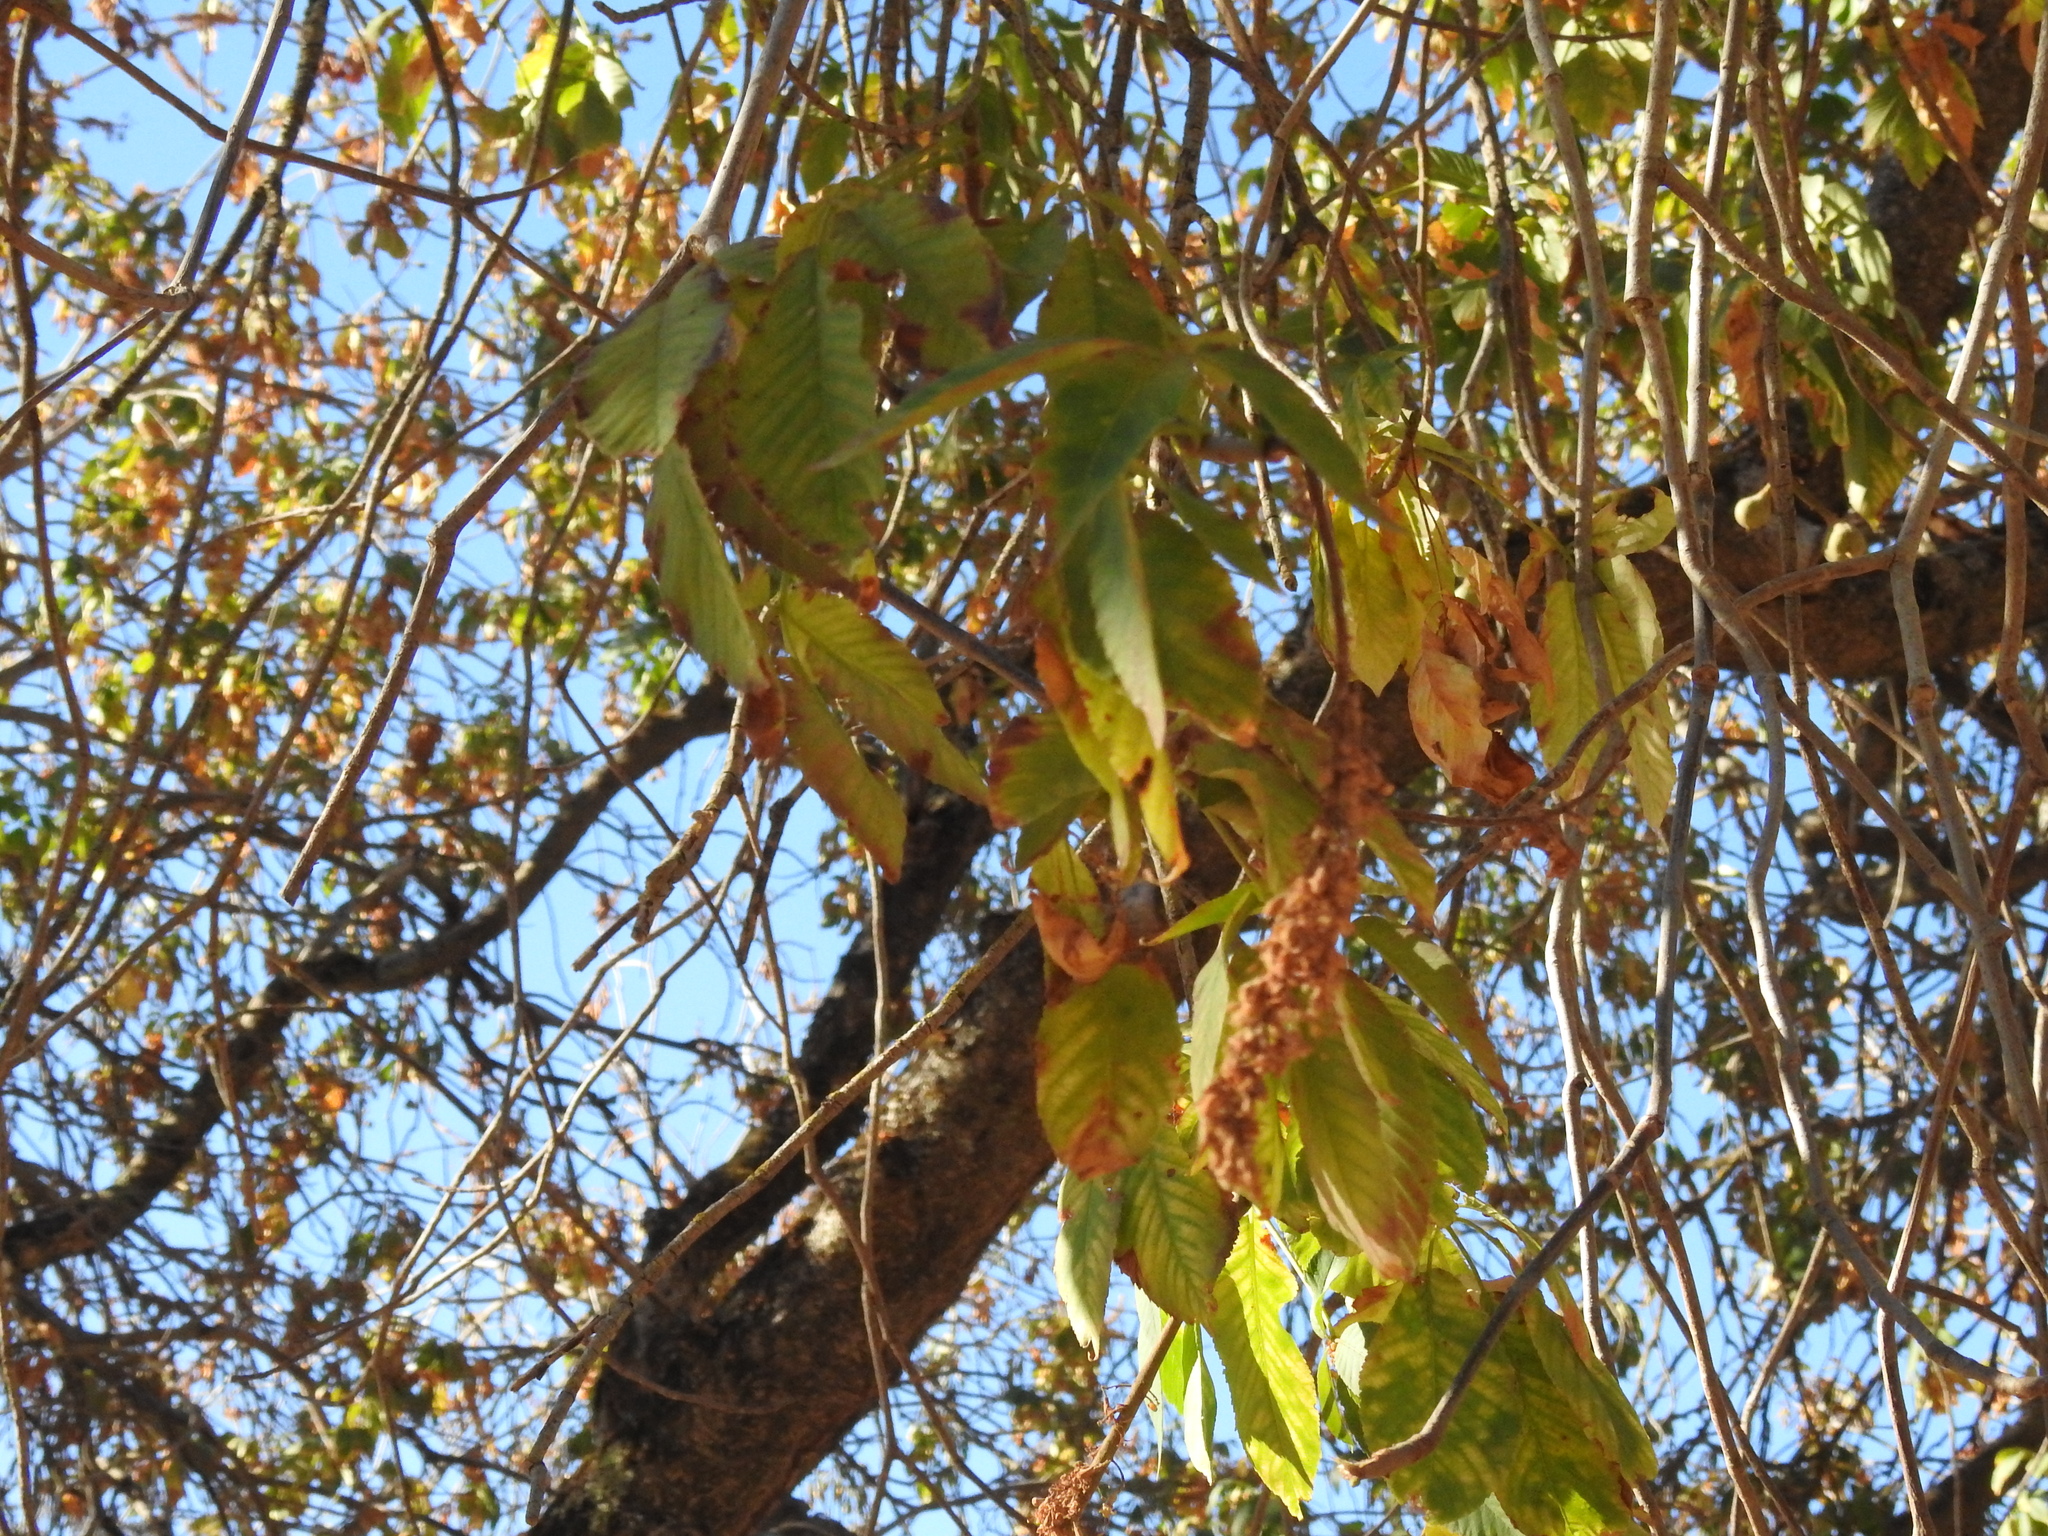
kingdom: Plantae
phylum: Tracheophyta
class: Magnoliopsida
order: Sapindales
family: Sapindaceae
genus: Aesculus
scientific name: Aesculus californica
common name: California buckeye
